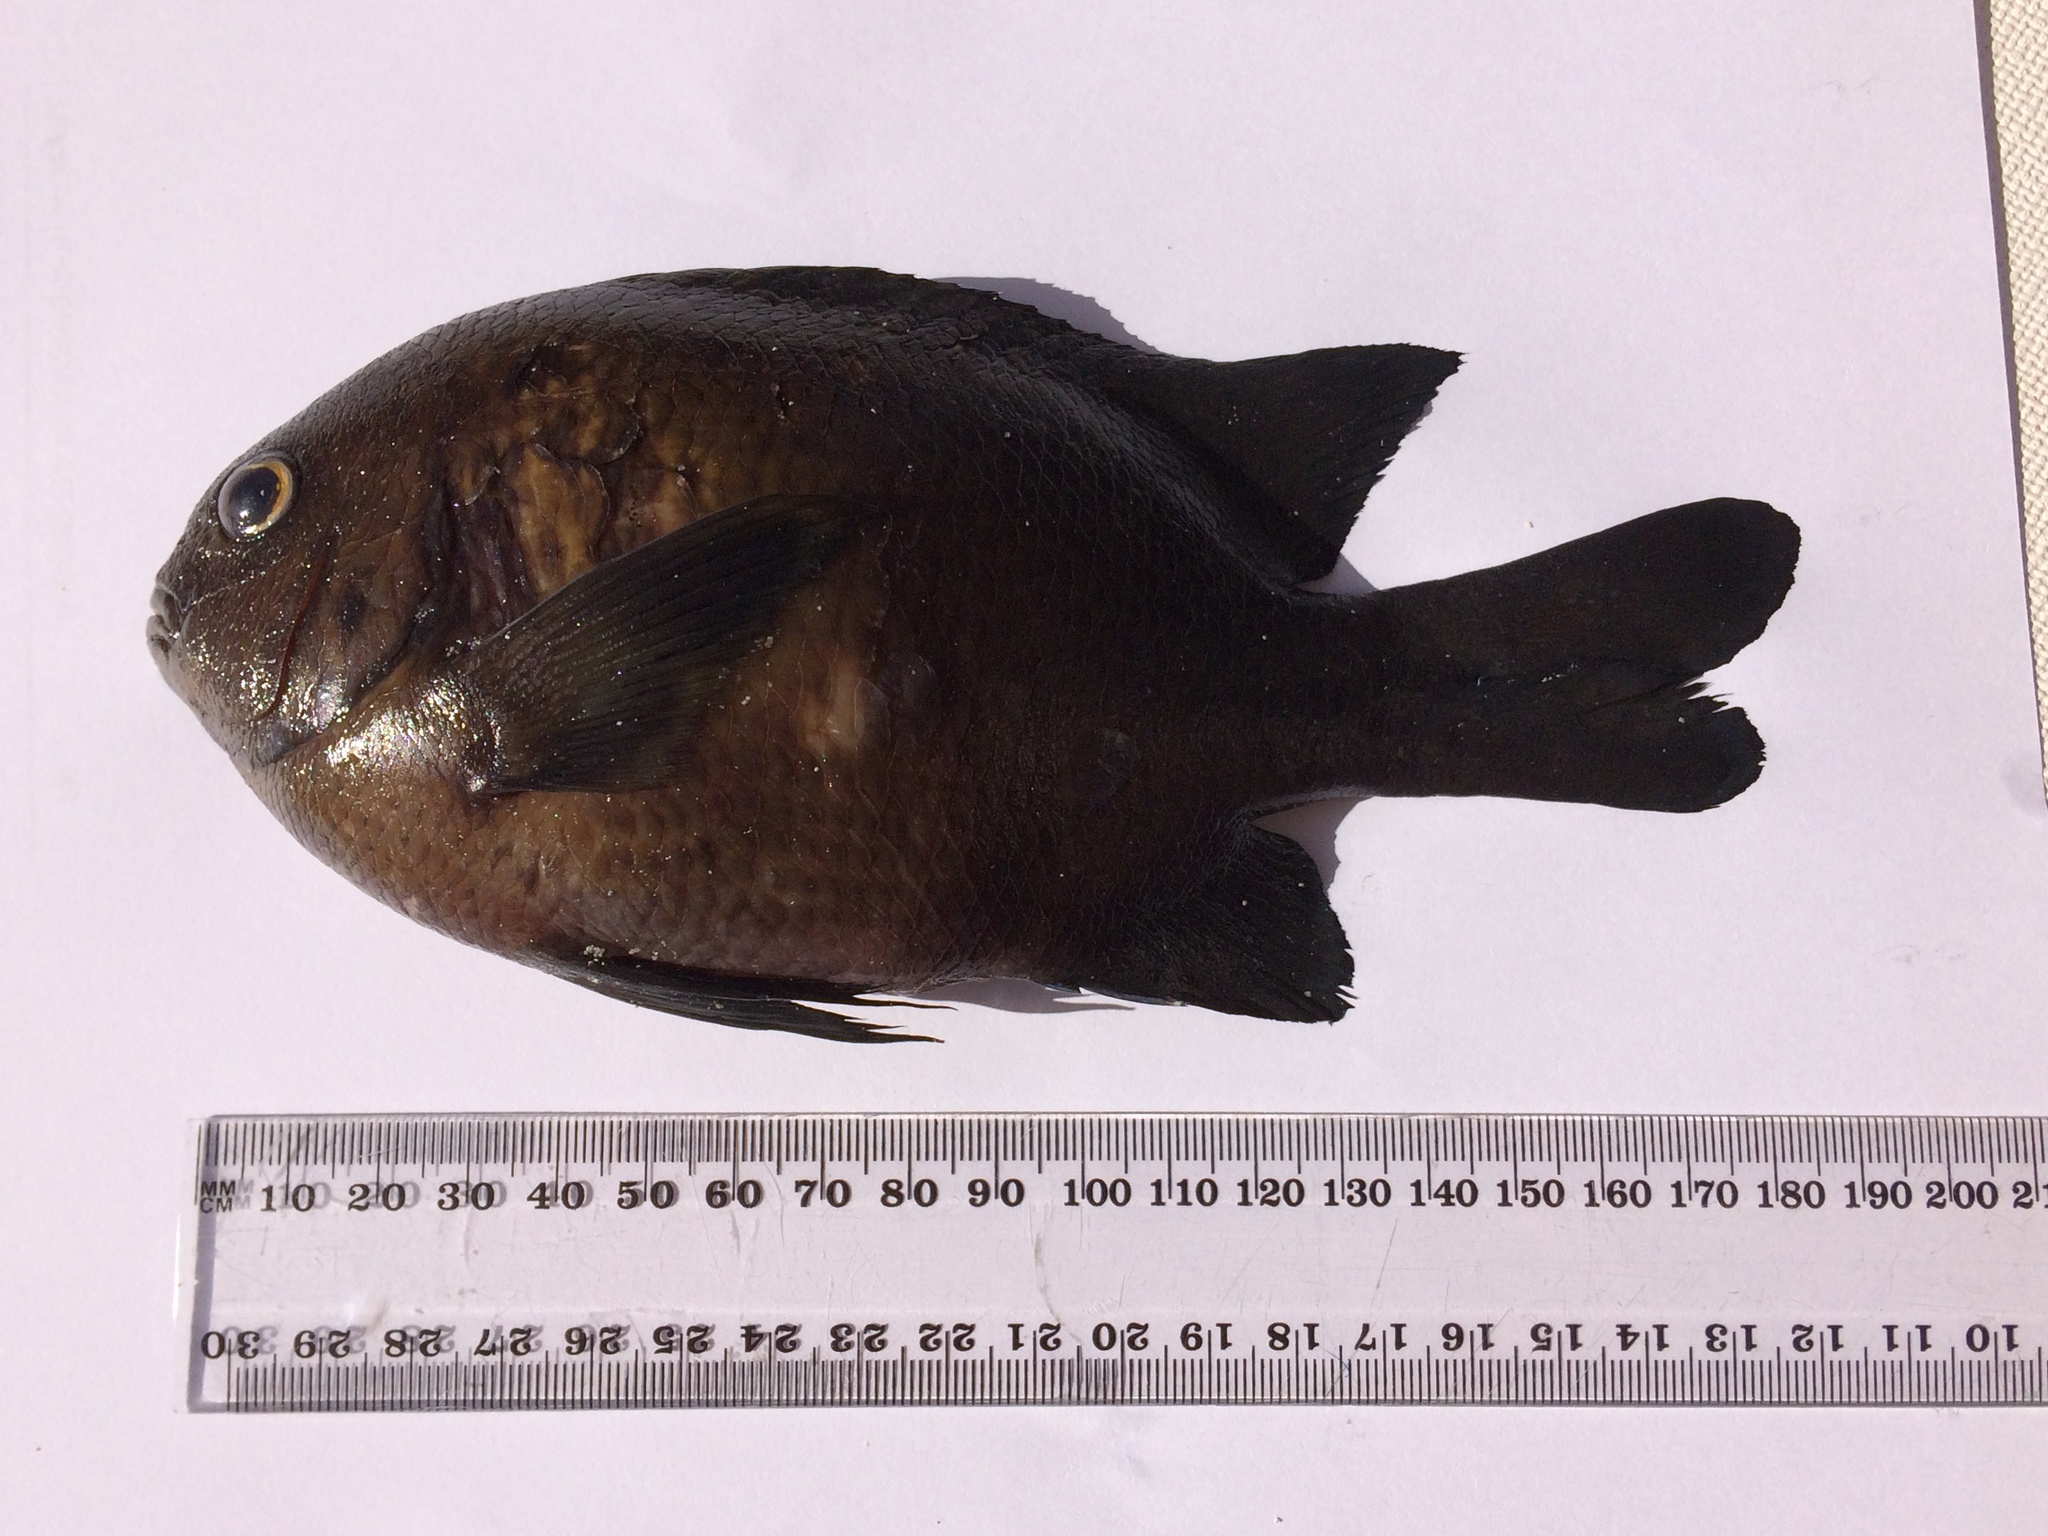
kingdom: Animalia
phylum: Chordata
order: Perciformes
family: Pomacentridae
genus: Parma
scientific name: Parma mccullochi
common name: Common scalyfin
